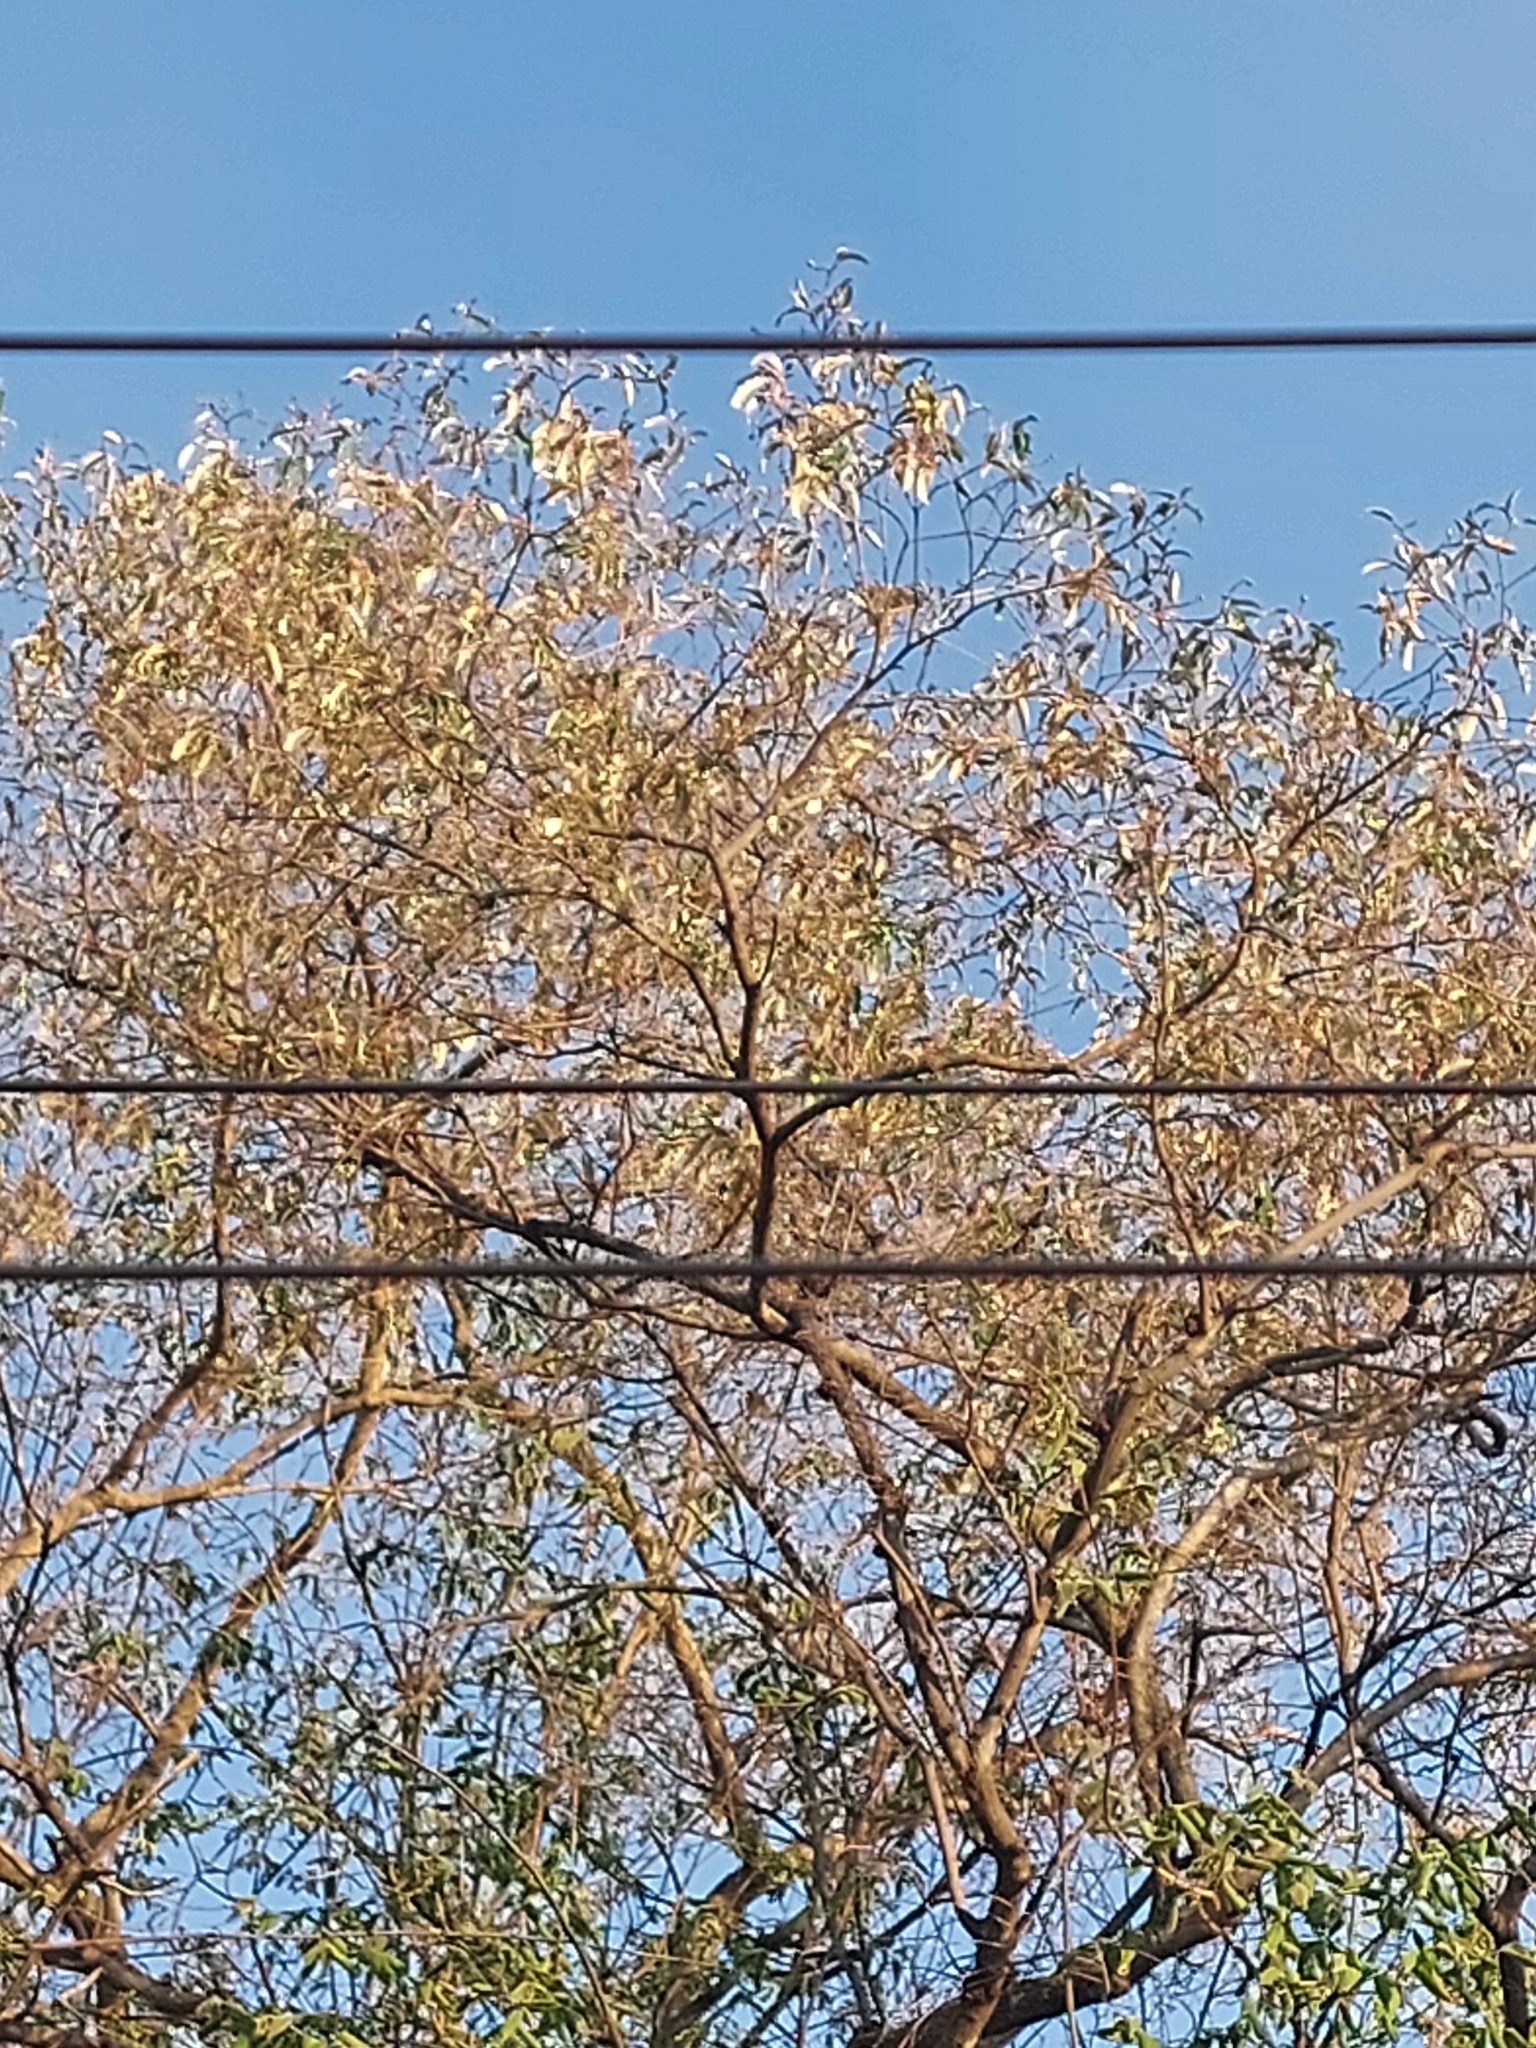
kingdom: Plantae
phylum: Tracheophyta
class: Magnoliopsida
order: Malpighiales
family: Euphorbiaceae
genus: Croton
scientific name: Croton gratissimus
